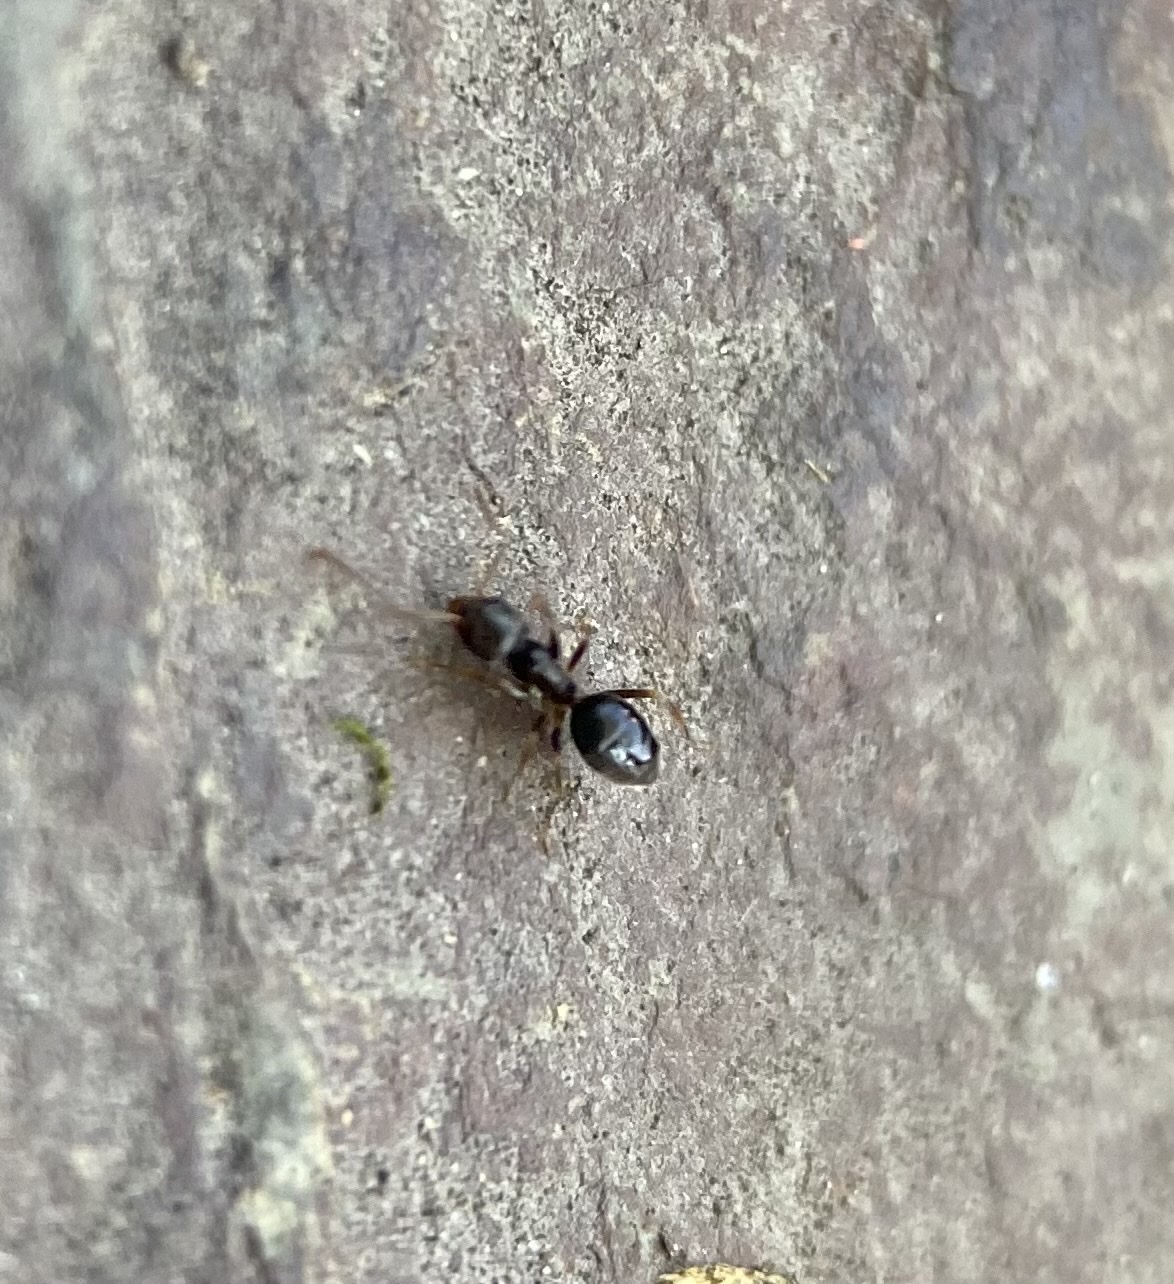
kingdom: Animalia
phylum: Arthropoda
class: Insecta
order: Hymenoptera
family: Formicidae
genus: Tapinoma
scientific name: Tapinoma sessile
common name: Odorous house ant
